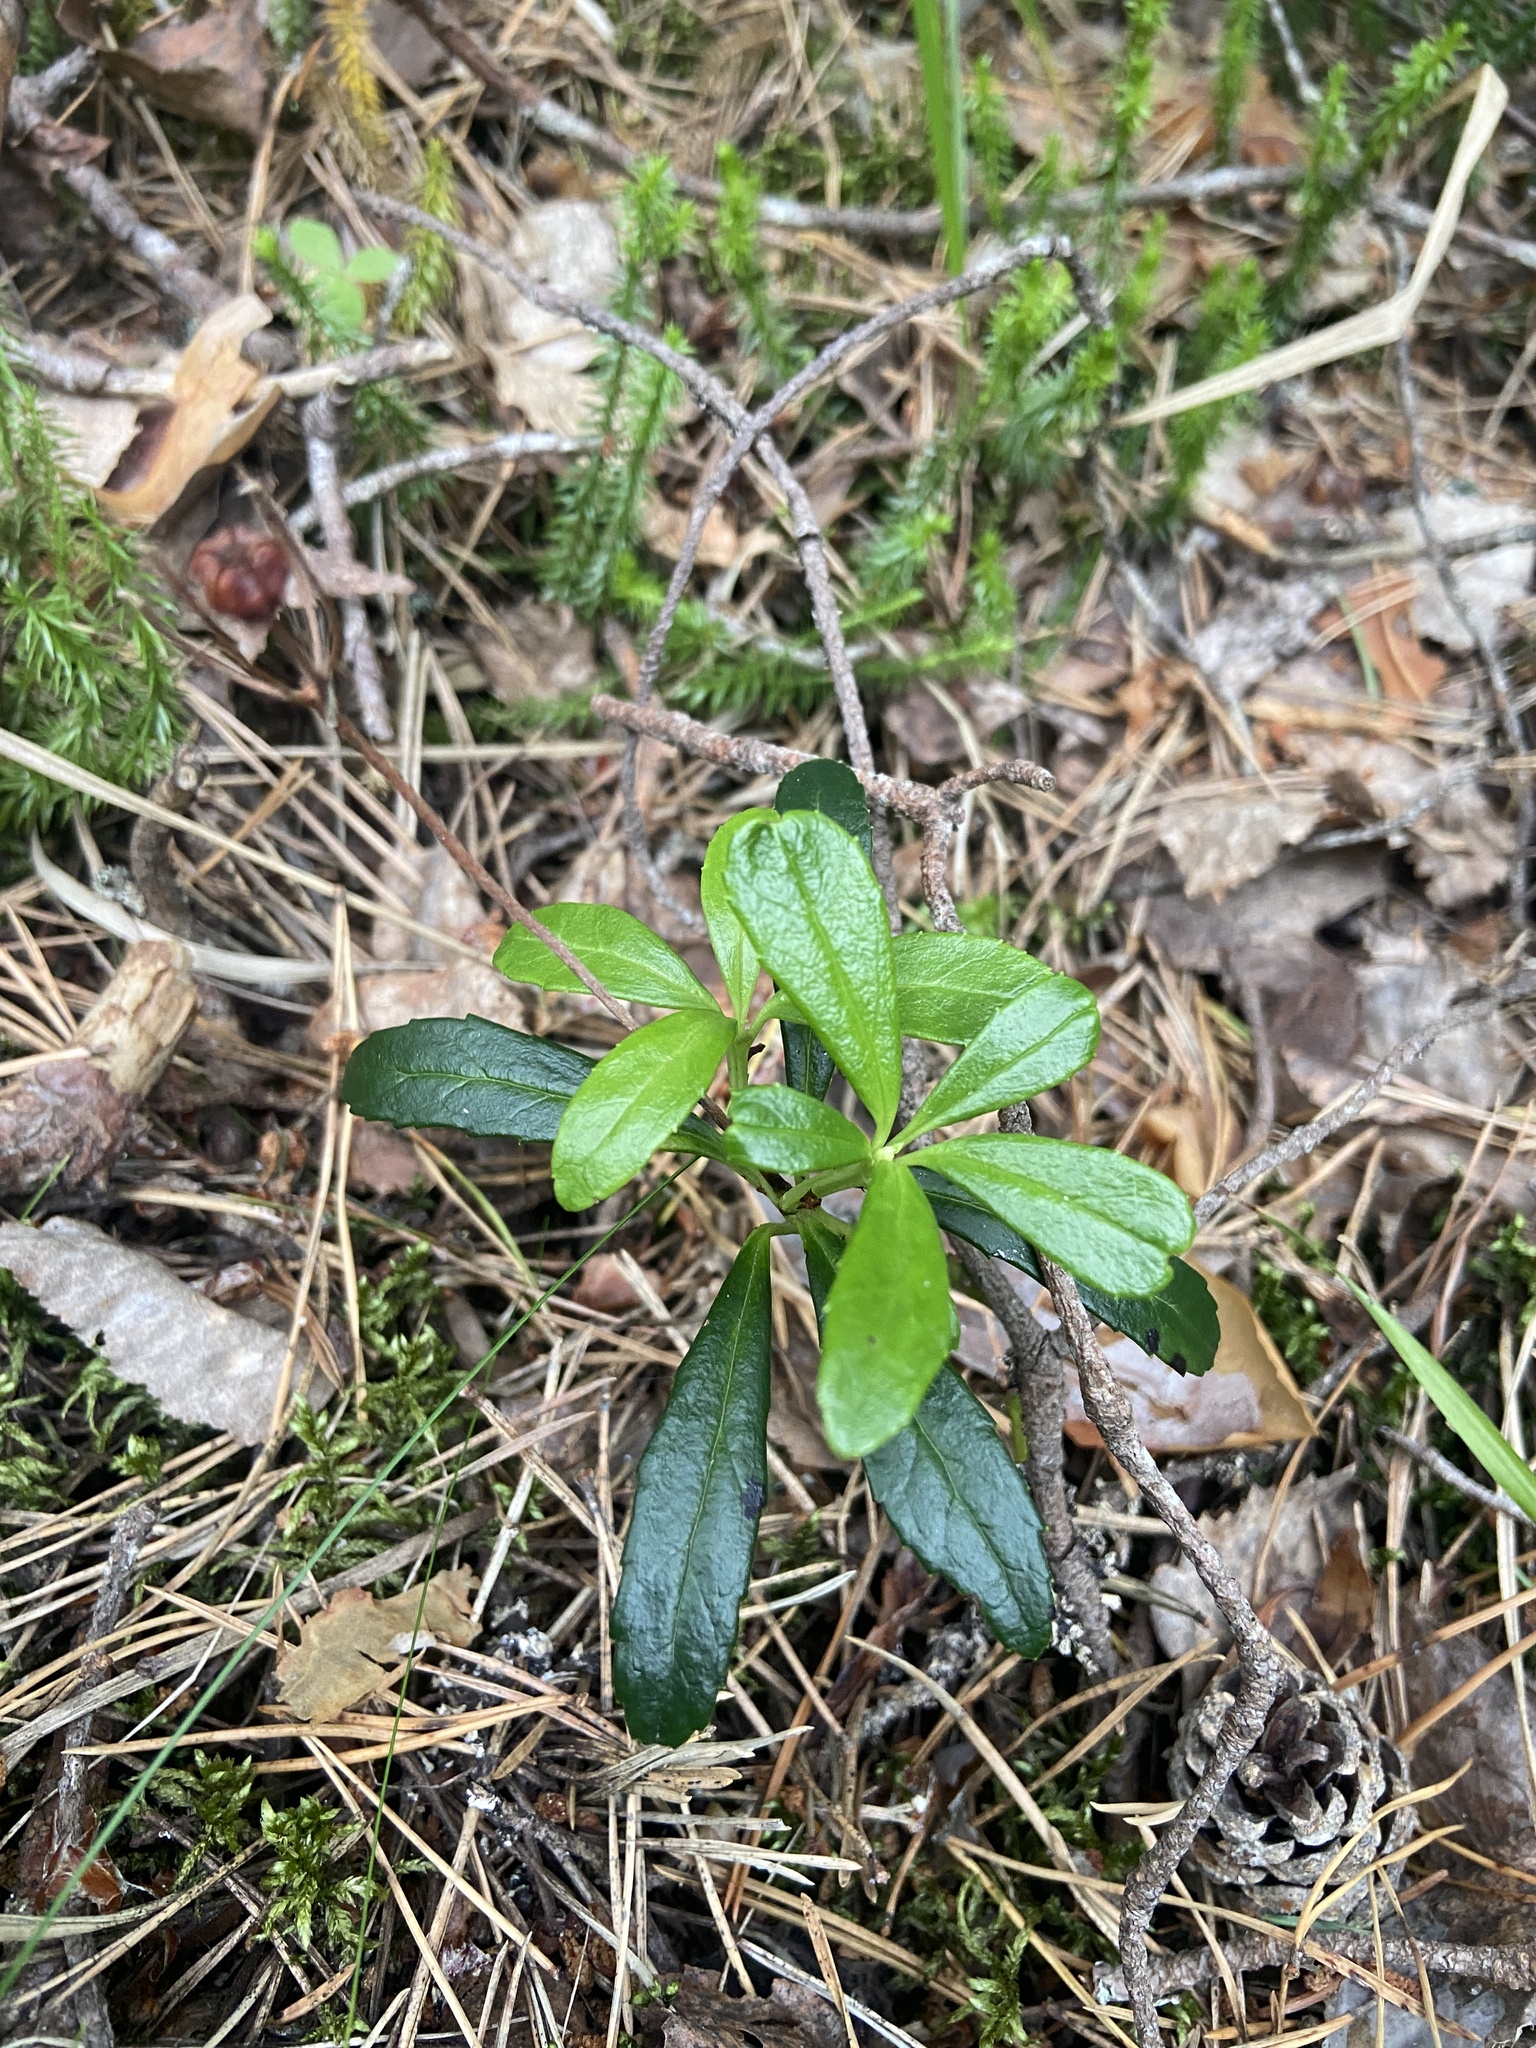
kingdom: Plantae
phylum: Tracheophyta
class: Magnoliopsida
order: Ericales
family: Ericaceae
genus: Chimaphila
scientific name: Chimaphila umbellata
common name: Pipsissewa
